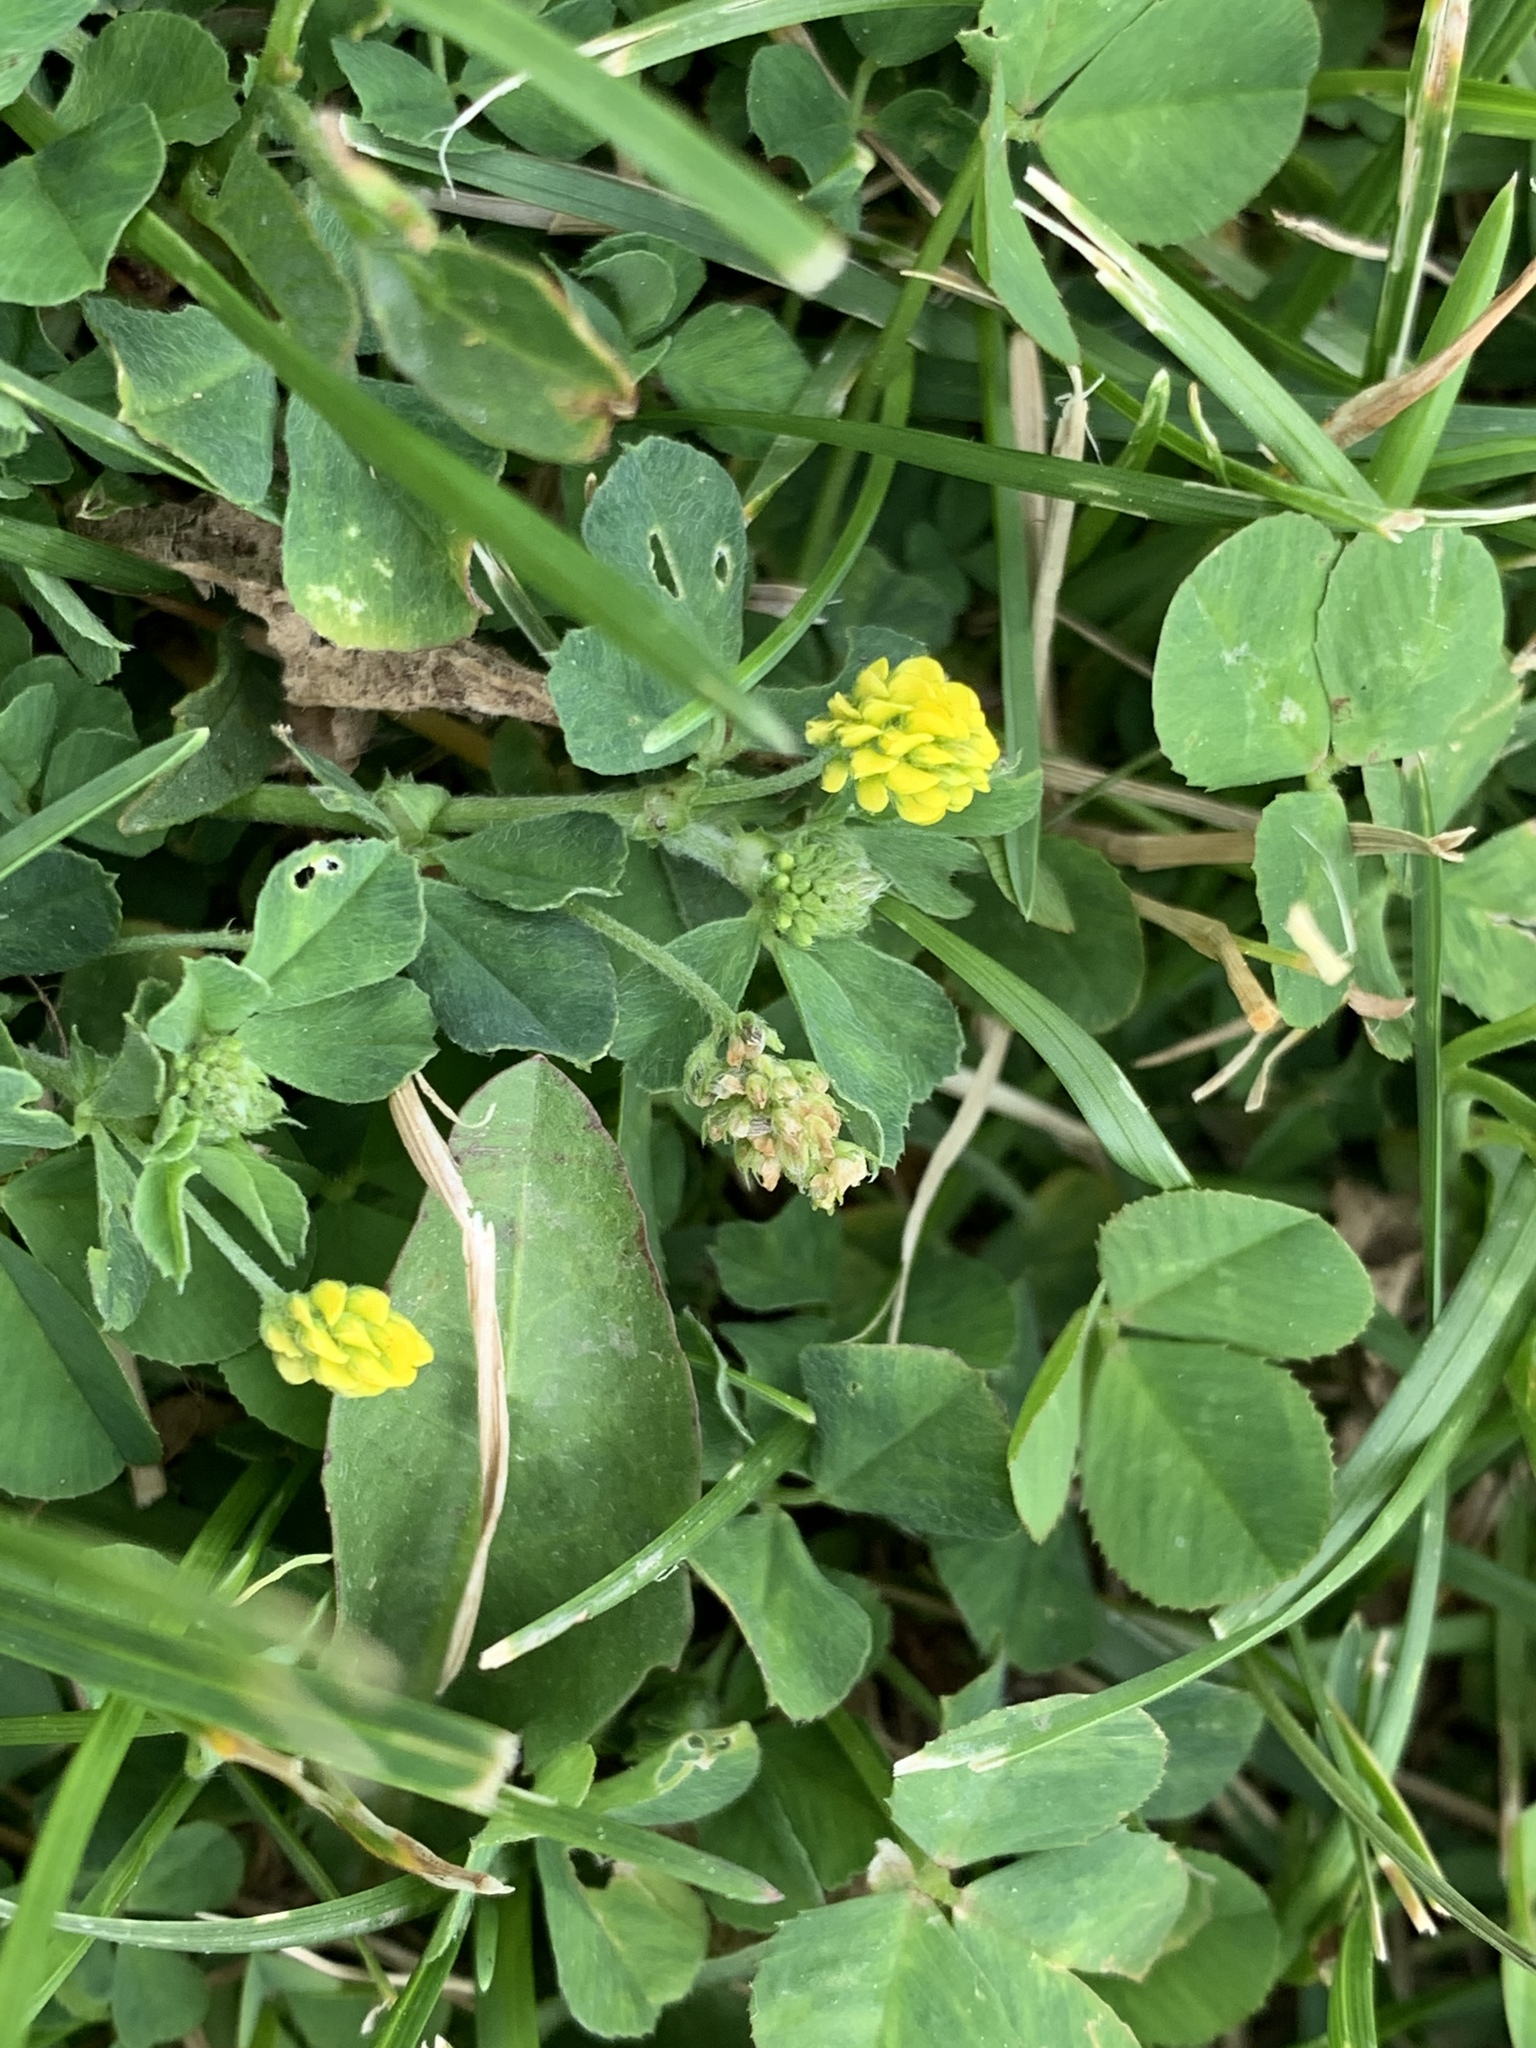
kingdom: Plantae
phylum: Tracheophyta
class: Magnoliopsida
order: Fabales
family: Fabaceae
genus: Medicago
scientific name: Medicago lupulina
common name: Black medick
